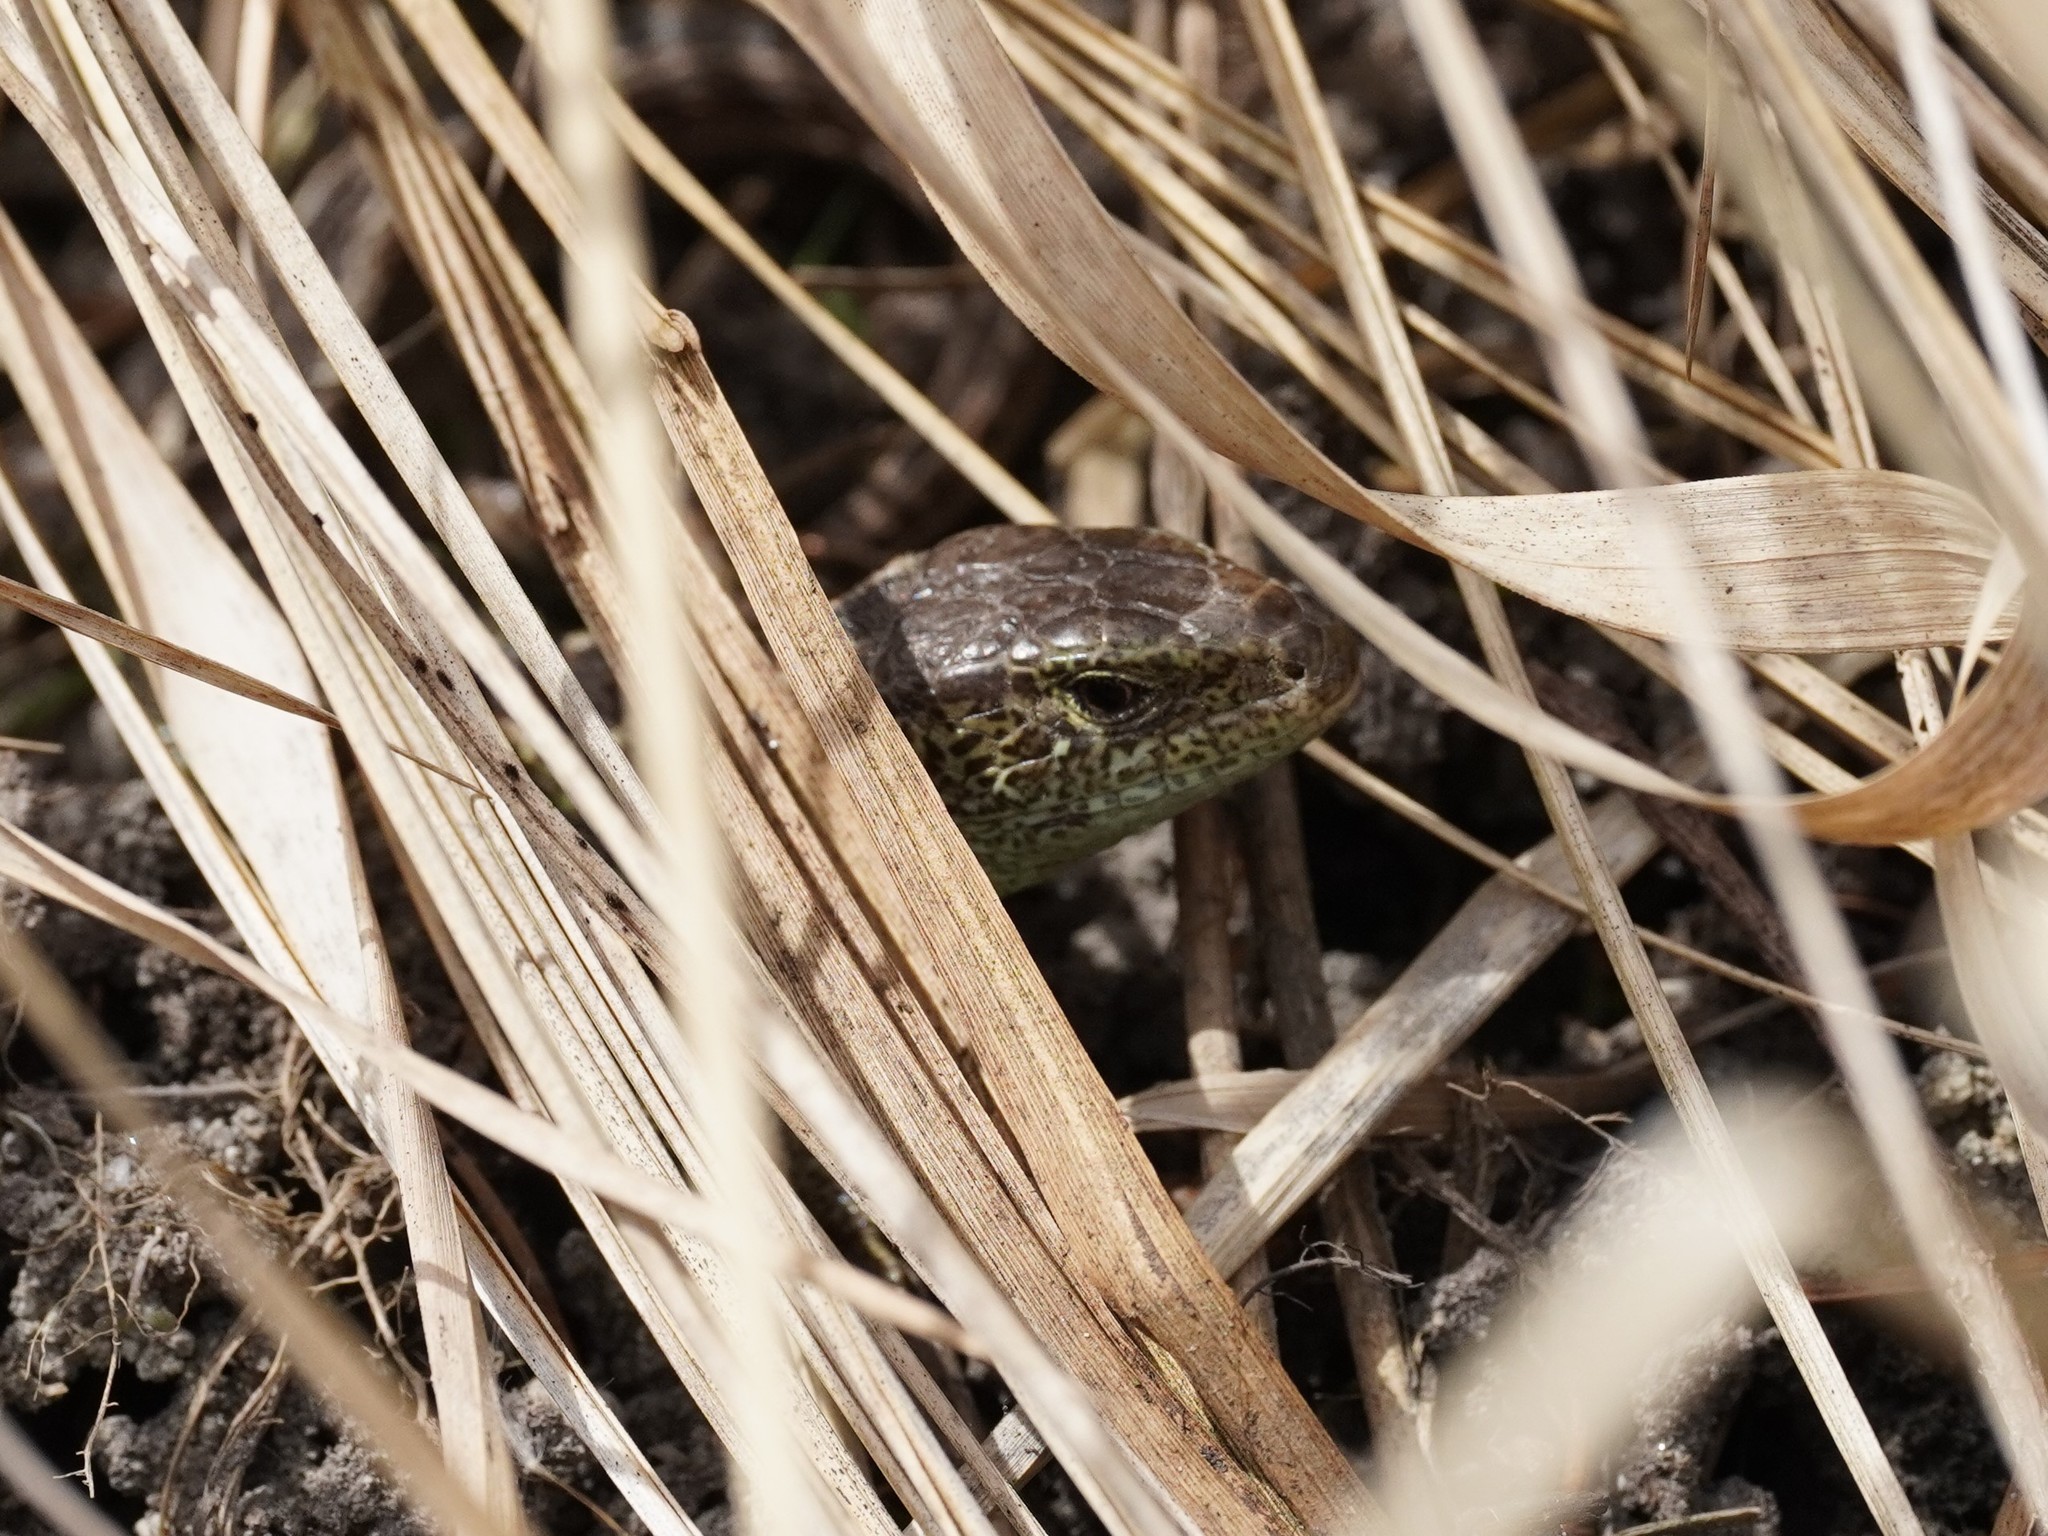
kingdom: Animalia
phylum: Chordata
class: Squamata
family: Lacertidae
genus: Lacerta
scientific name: Lacerta agilis
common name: Sand lizard
